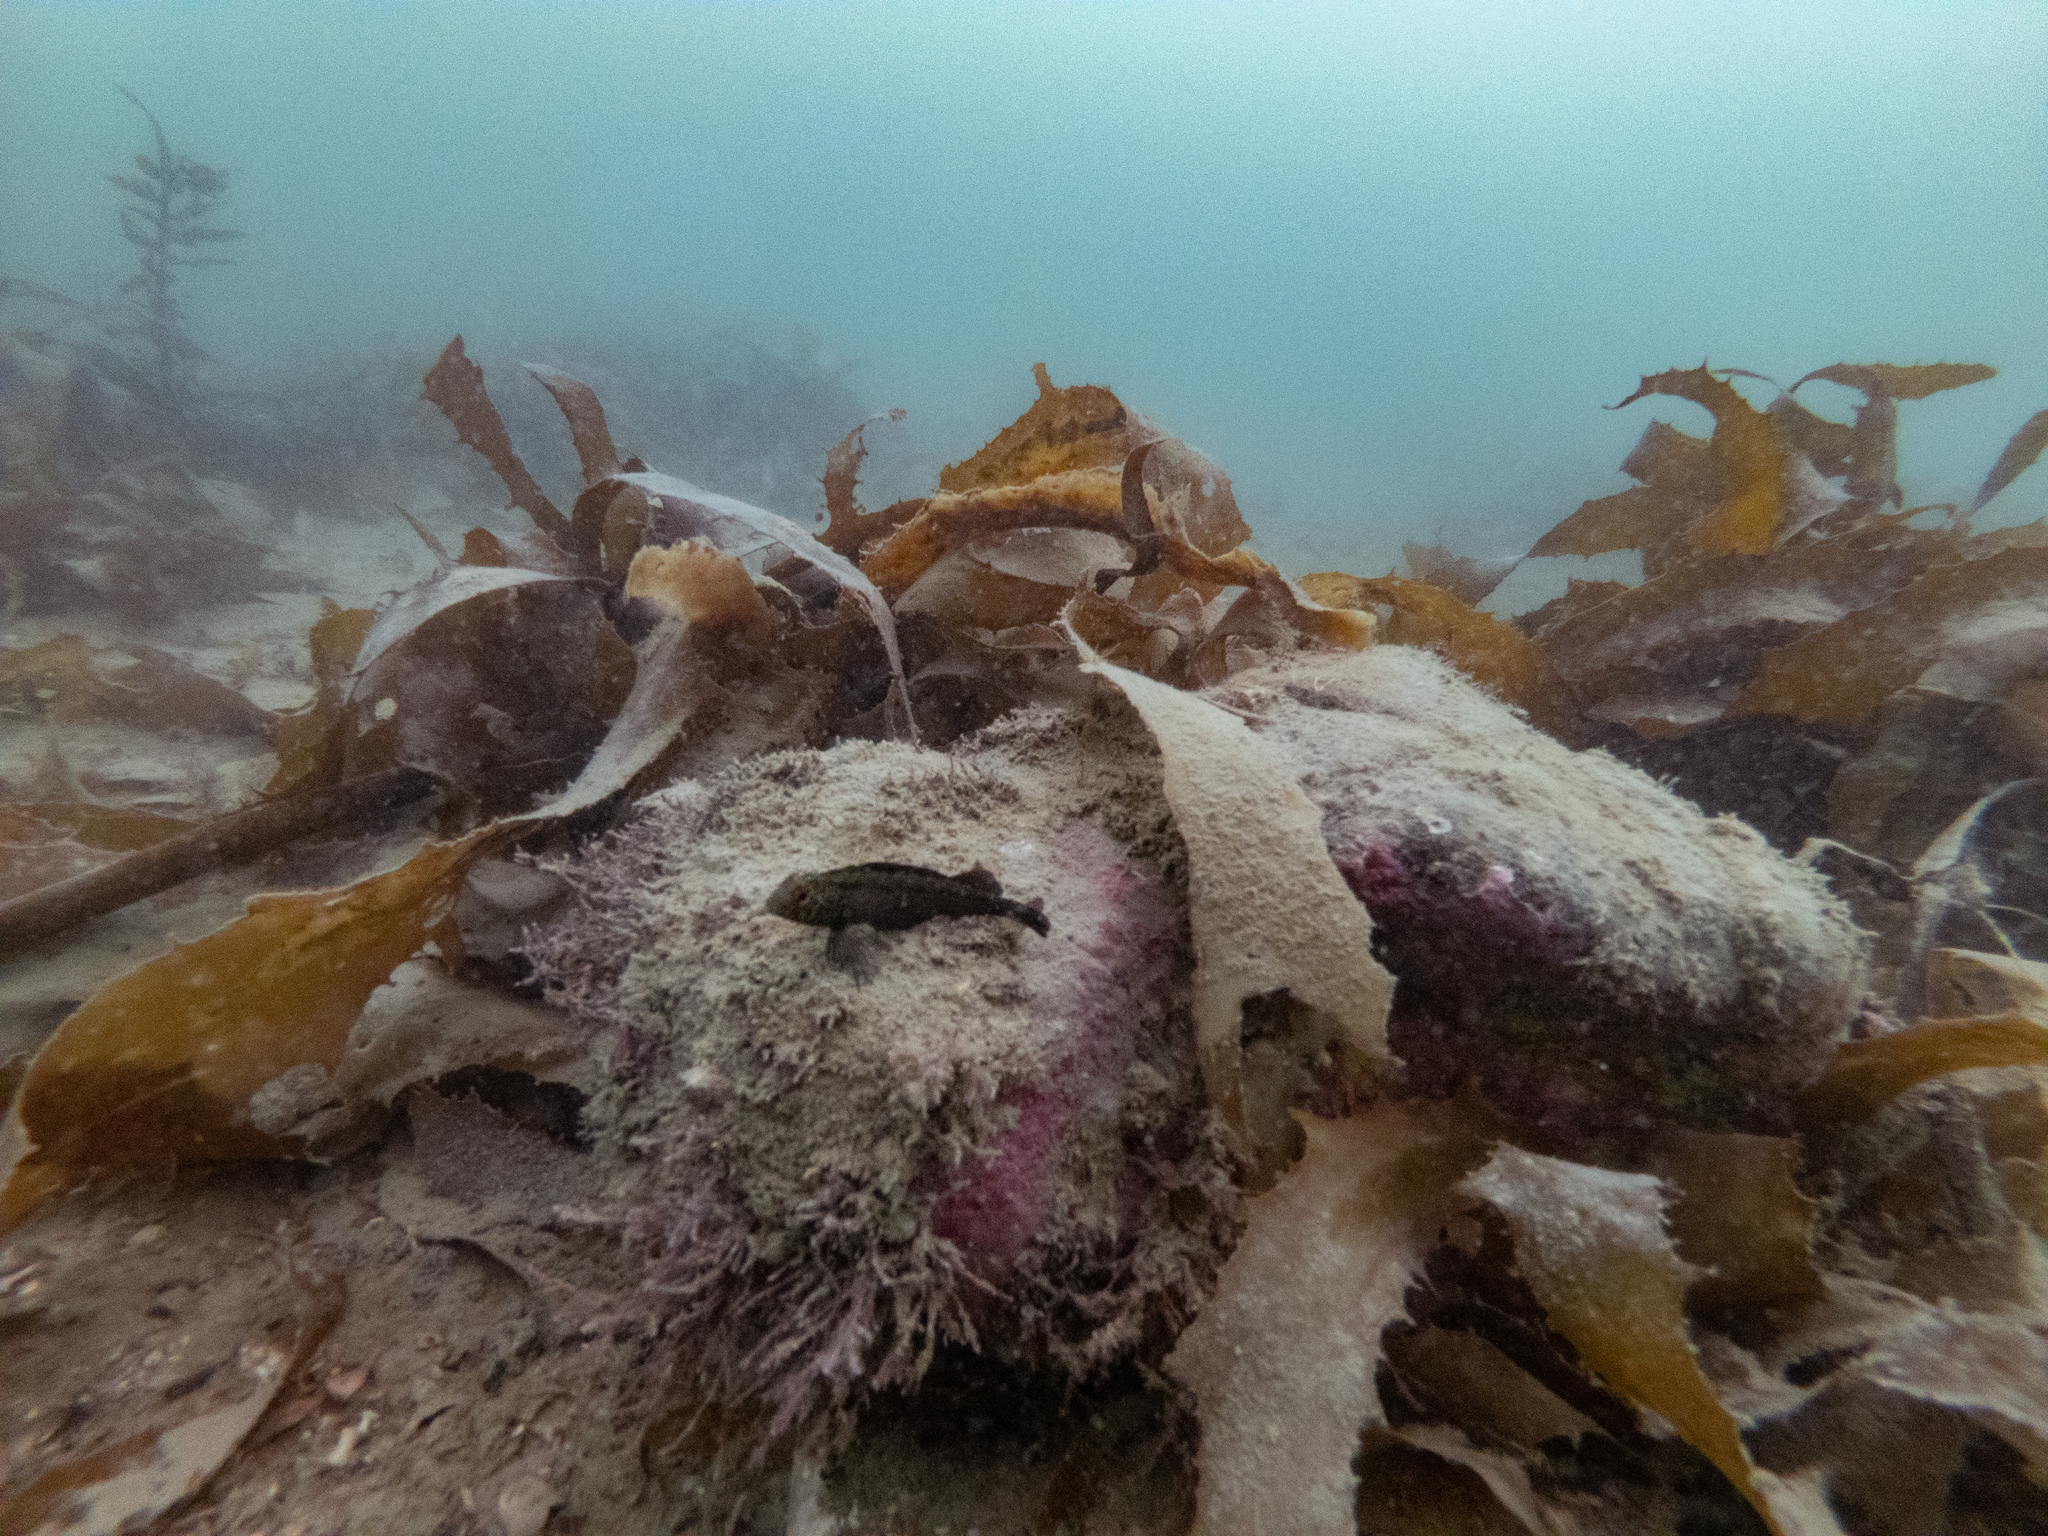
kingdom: Animalia
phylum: Chordata
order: Perciformes
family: Tripterygiidae
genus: Forsterygion
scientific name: Forsterygion lapillum
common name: Common triplefin
